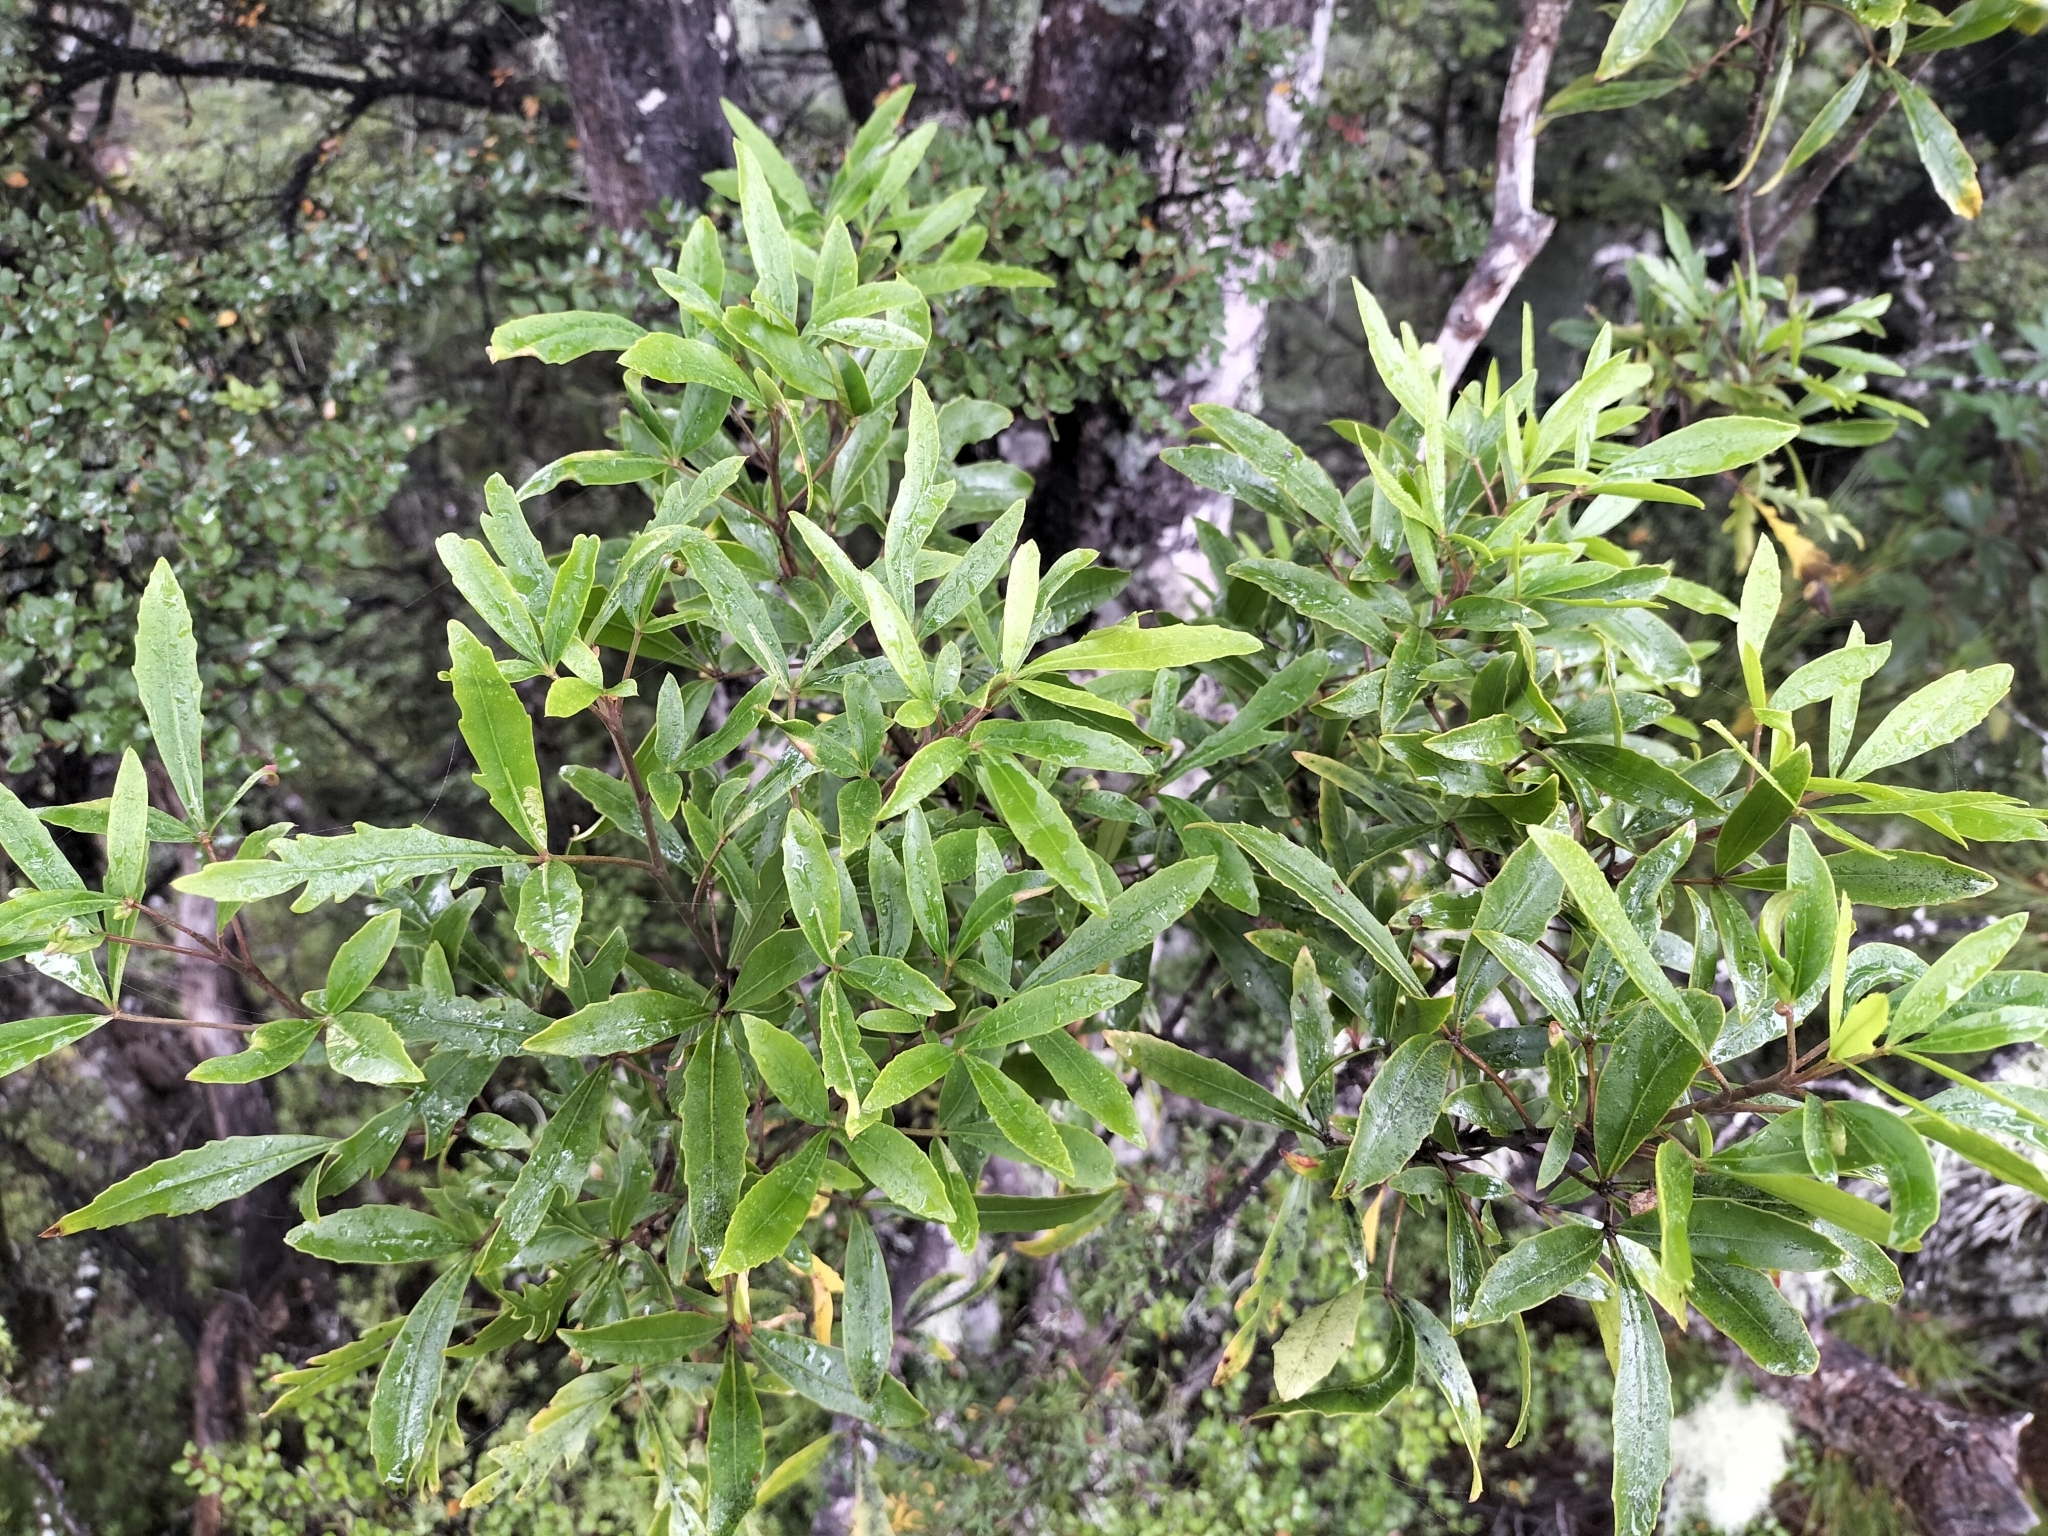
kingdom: Plantae
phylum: Tracheophyta
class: Magnoliopsida
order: Apiales
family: Araliaceae
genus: Raukaua
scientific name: Raukaua simplex
